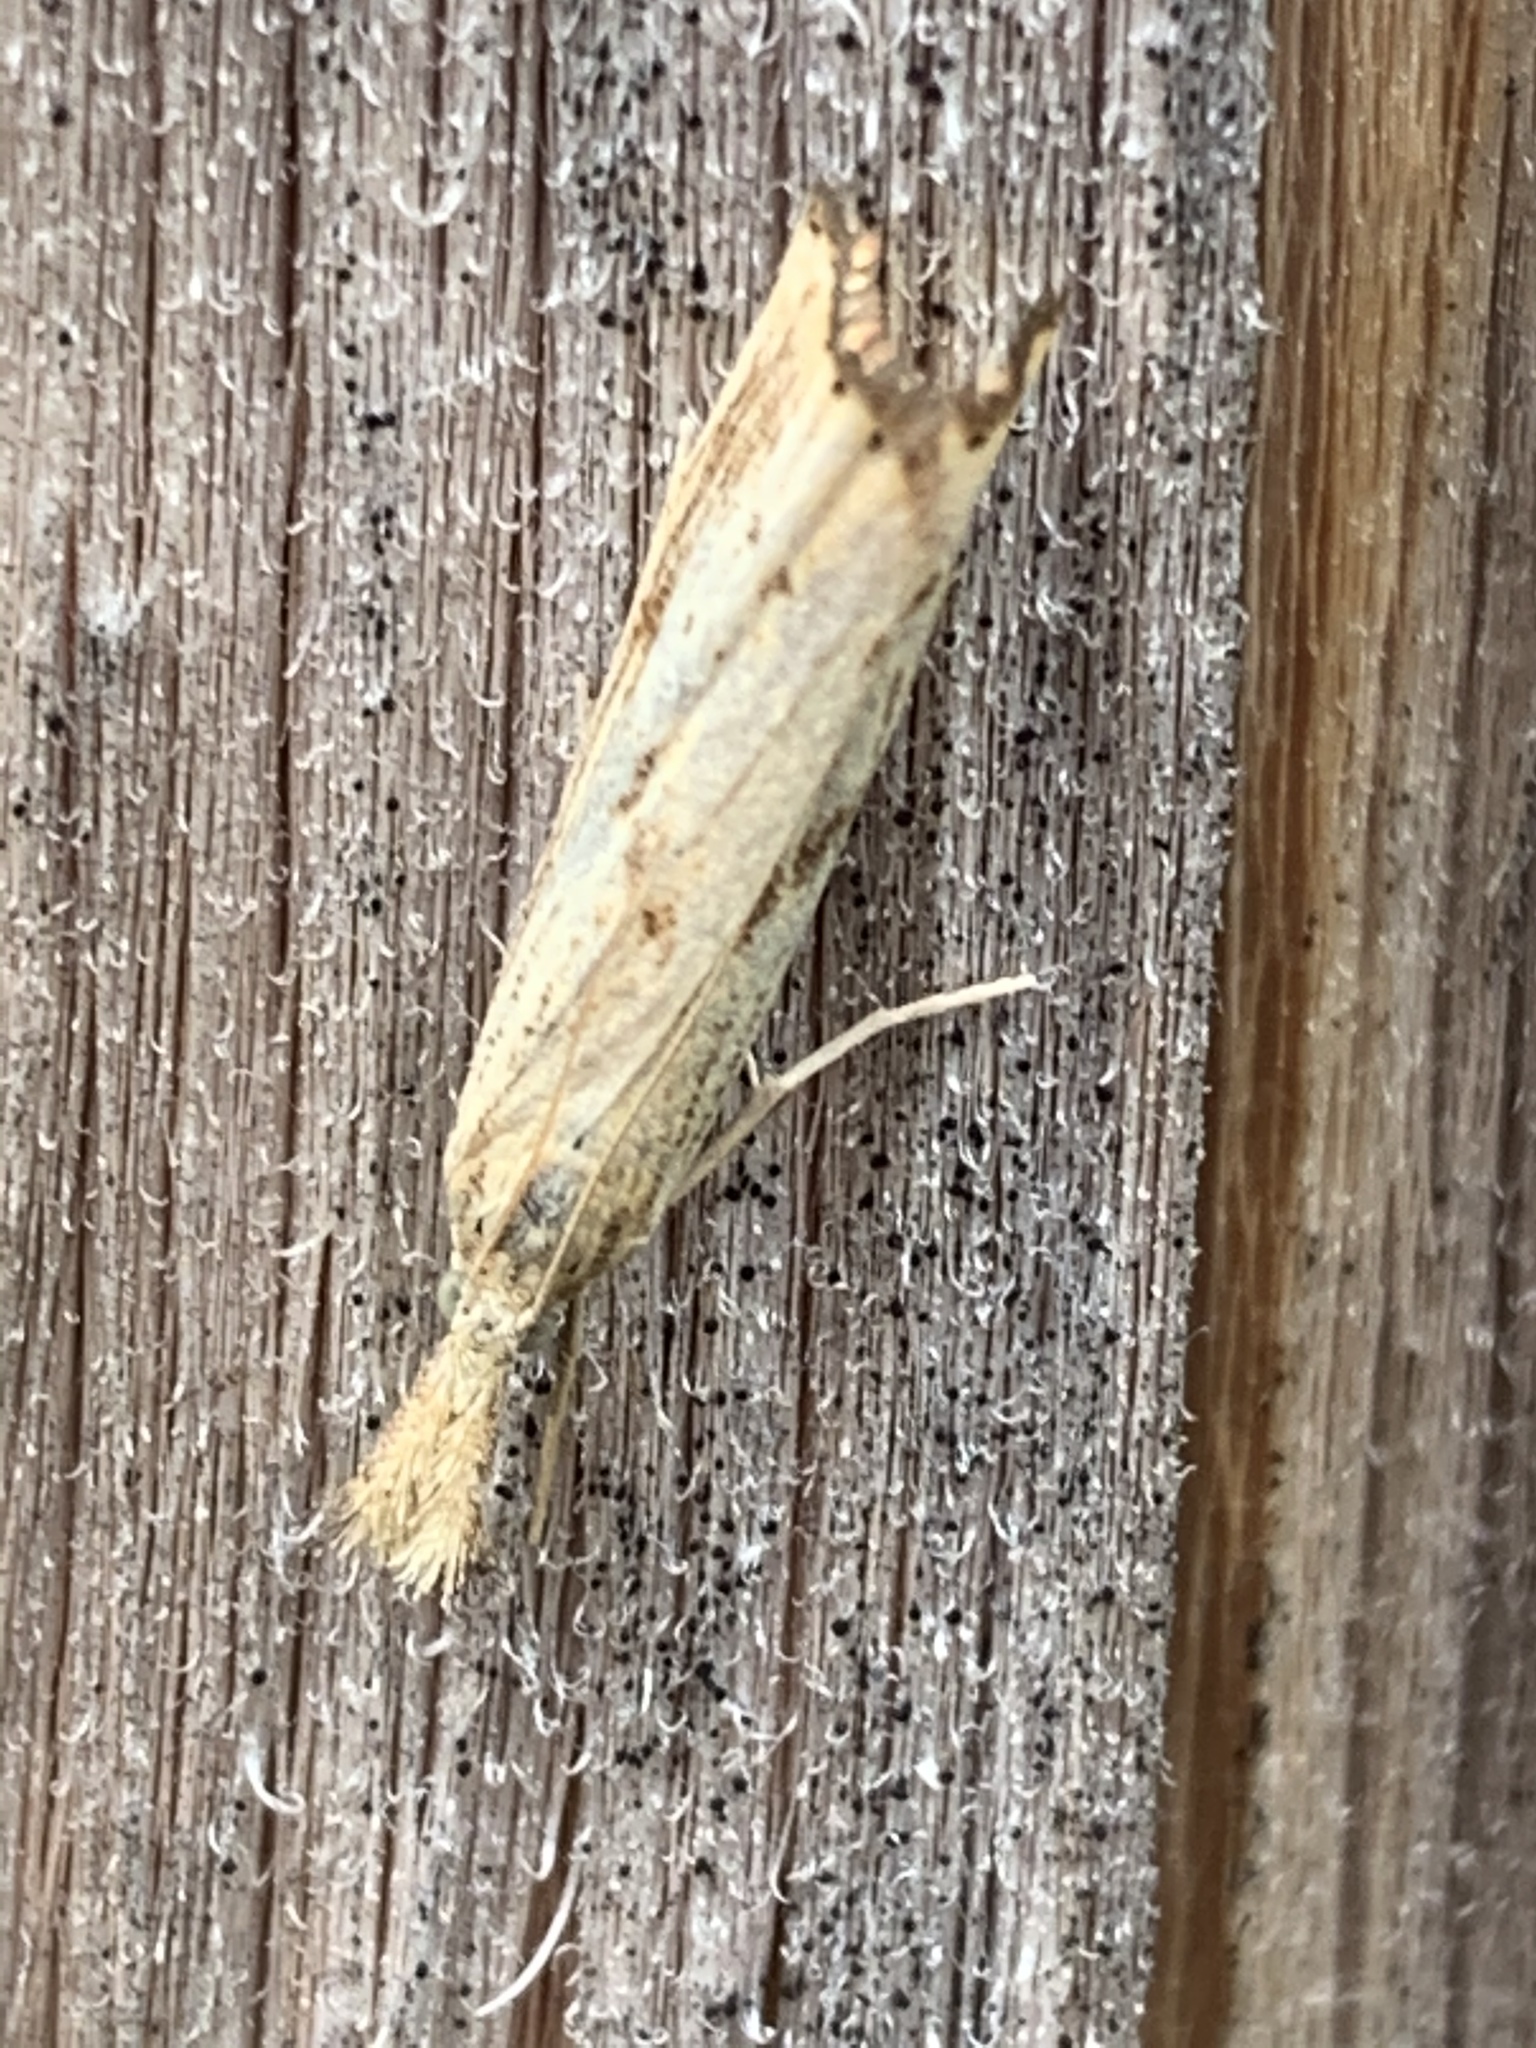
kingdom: Animalia
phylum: Arthropoda
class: Insecta
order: Lepidoptera
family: Crambidae
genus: Agriphila
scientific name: Agriphila ruricolellus
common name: Lesser vagabond sod webworm
